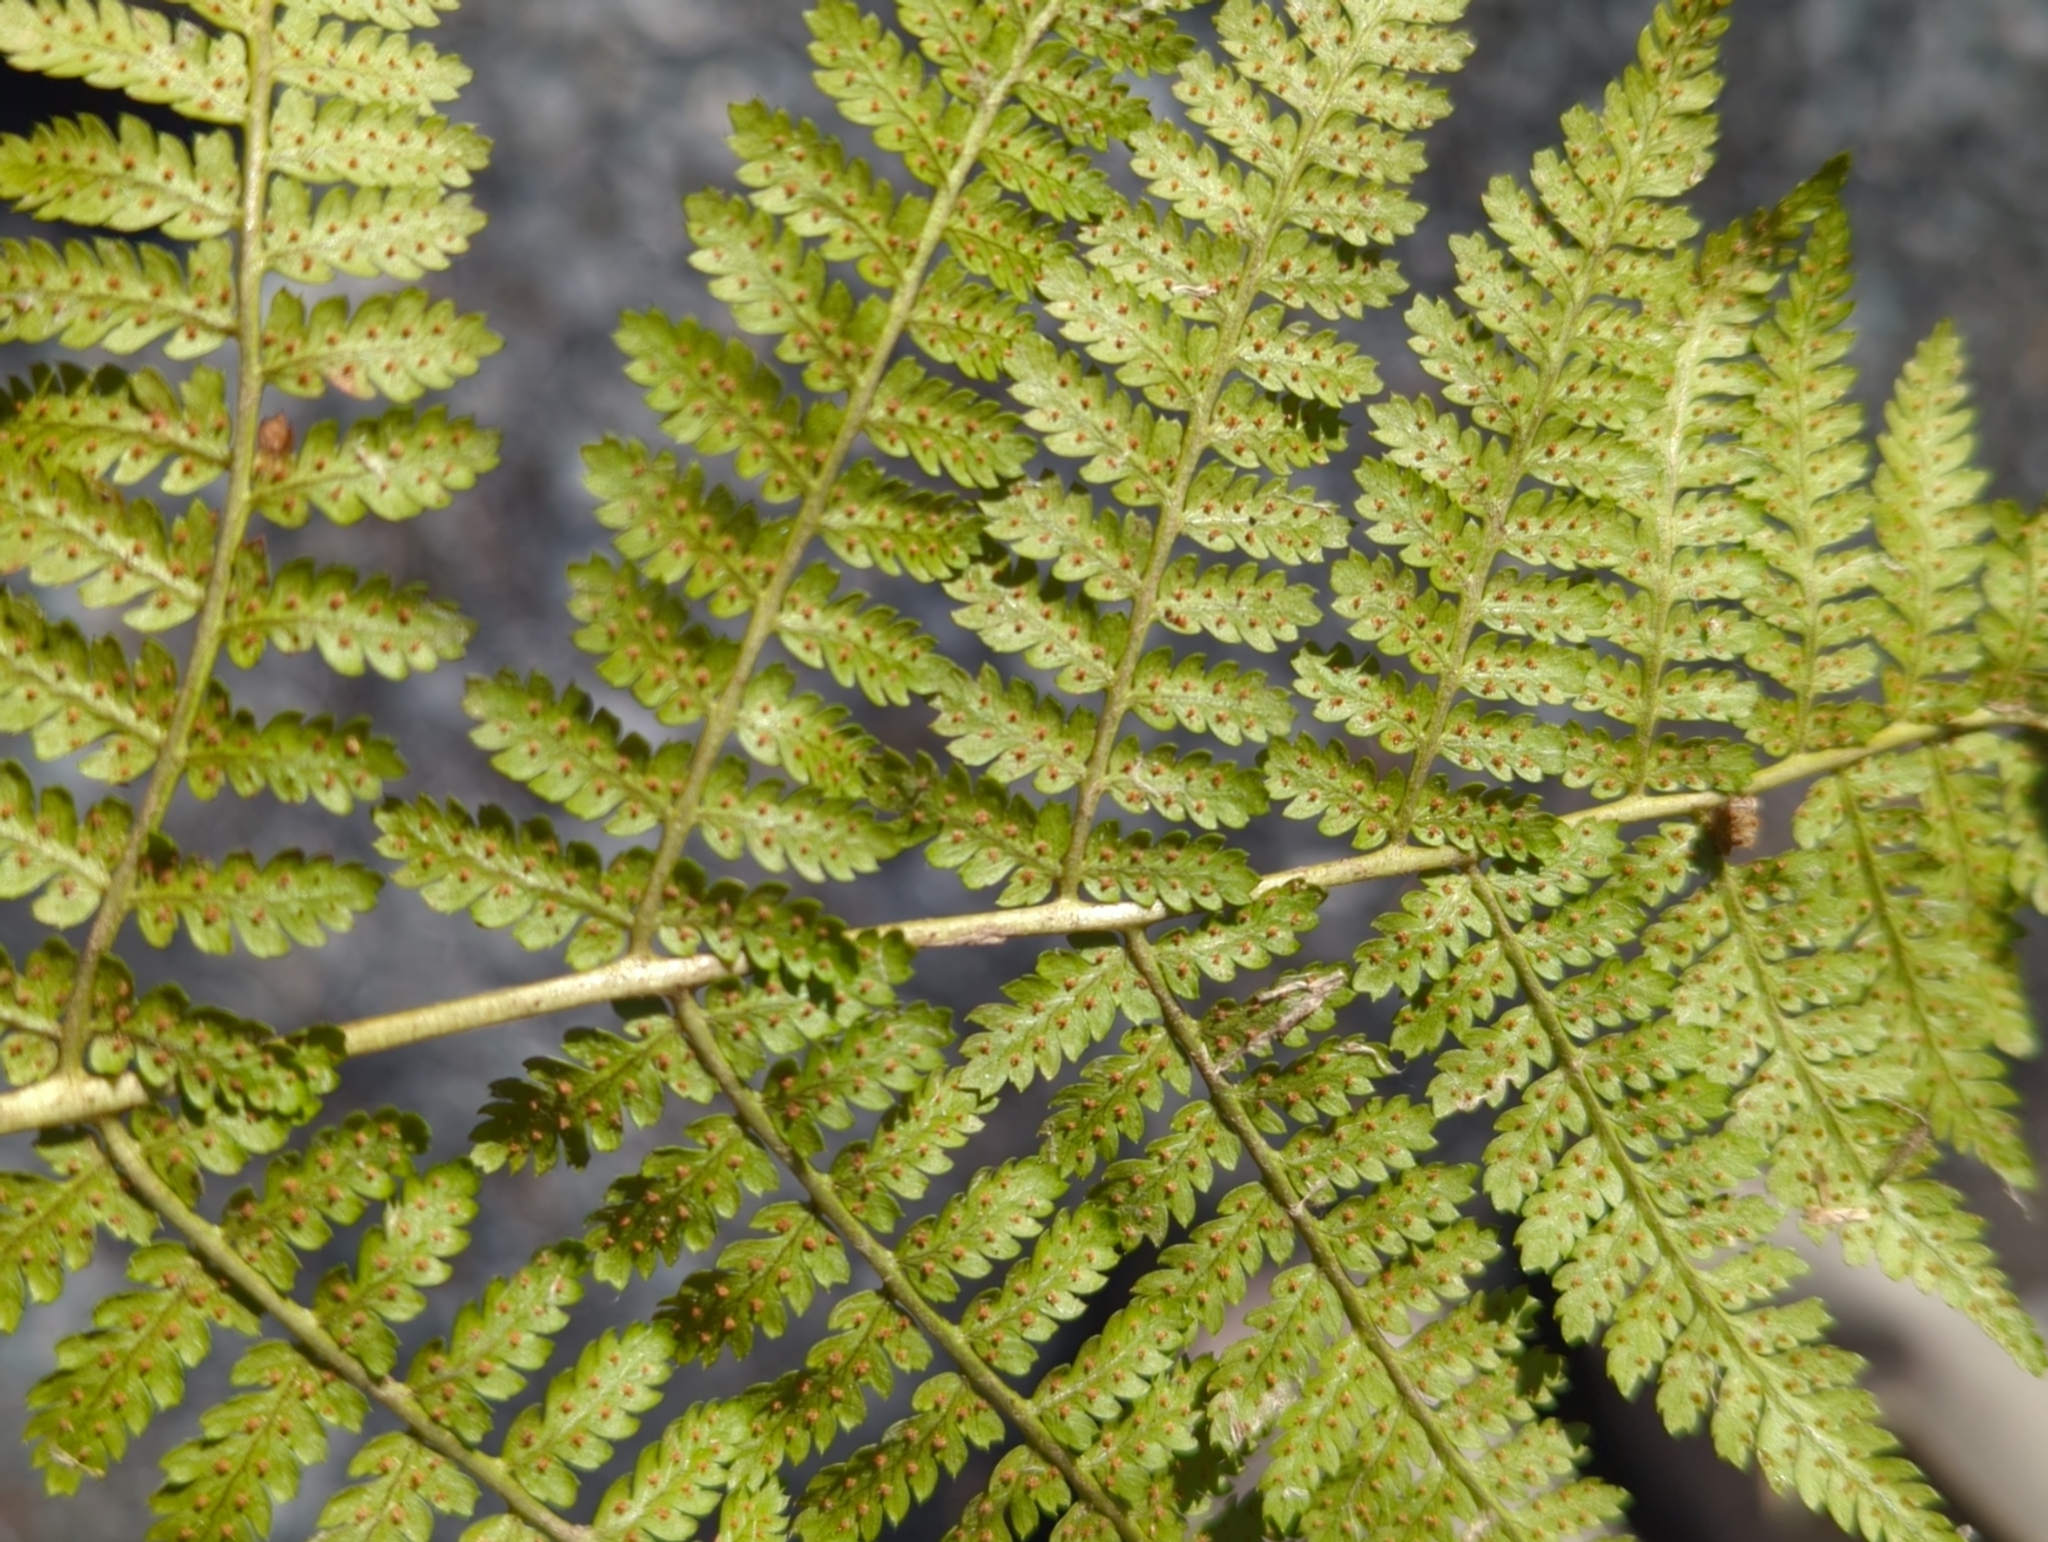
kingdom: Plantae
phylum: Tracheophyta
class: Polypodiopsida
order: Polypodiales
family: Dryopteridaceae
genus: Dryopteris
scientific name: Dryopteris intermedia
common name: Evergreen wood fern
